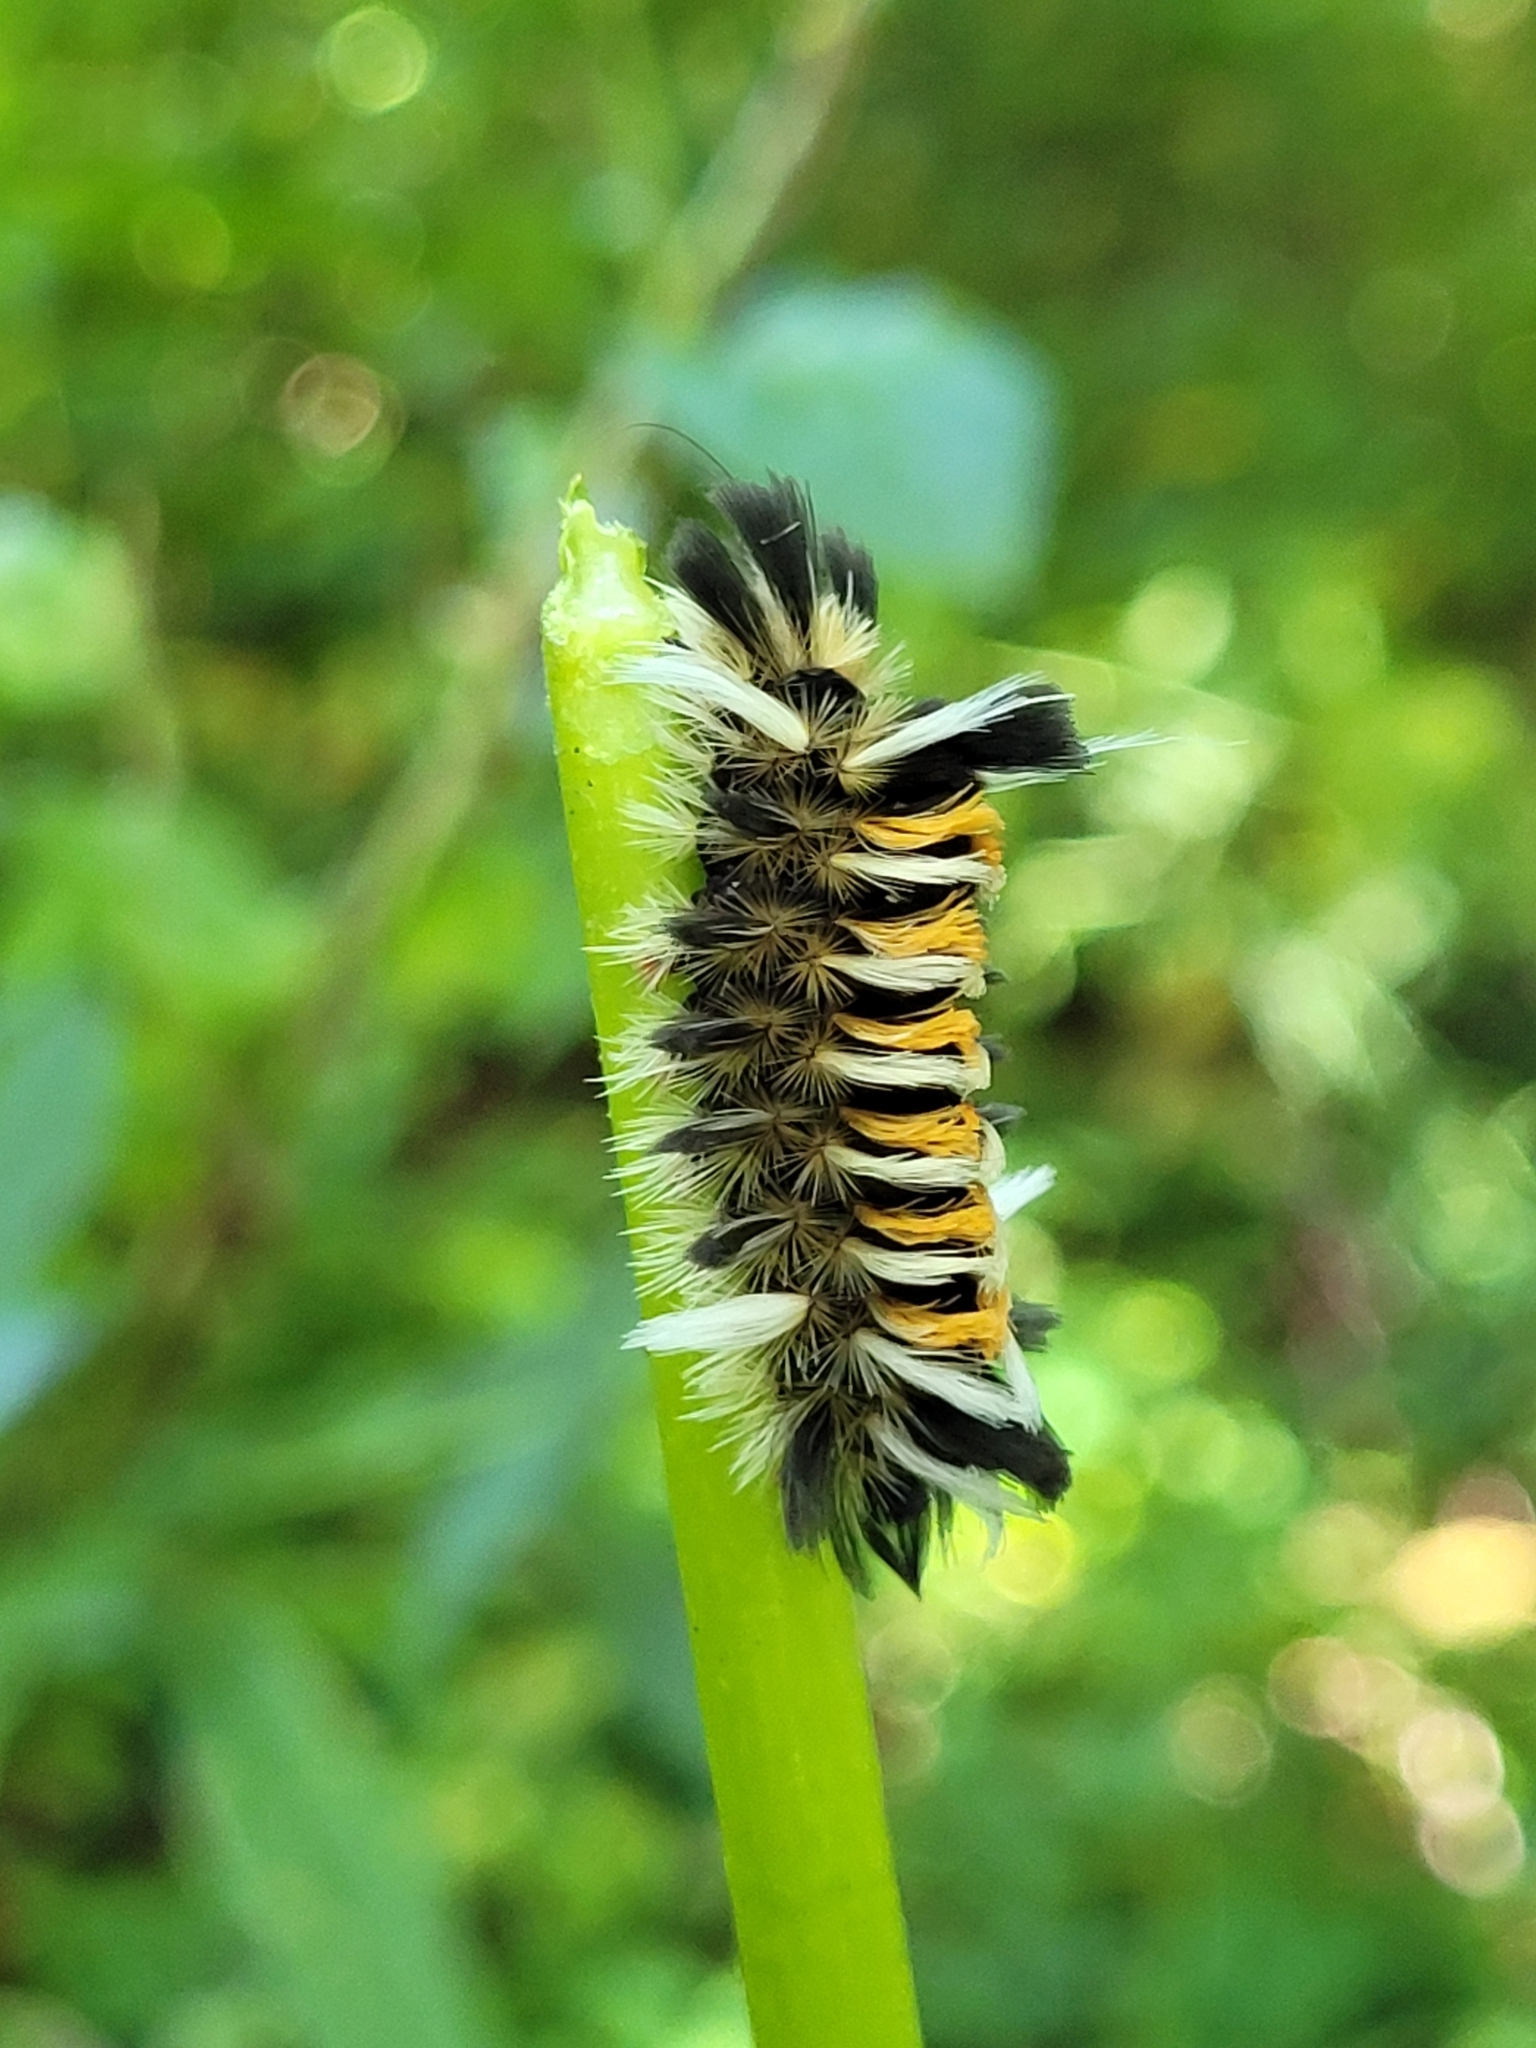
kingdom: Animalia
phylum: Arthropoda
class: Insecta
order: Lepidoptera
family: Erebidae
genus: Euchaetes
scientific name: Euchaetes egle
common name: Milkweed tussock moth
